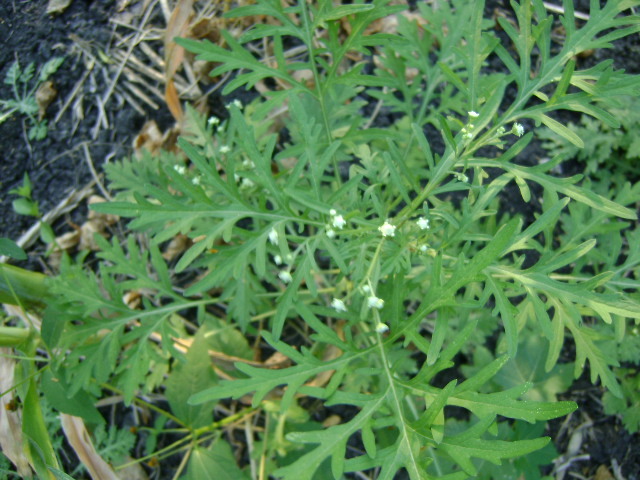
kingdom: Plantae
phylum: Tracheophyta
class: Magnoliopsida
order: Asterales
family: Asteraceae
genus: Parthenium
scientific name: Parthenium hysterophorus
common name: Santa maria feverfew
